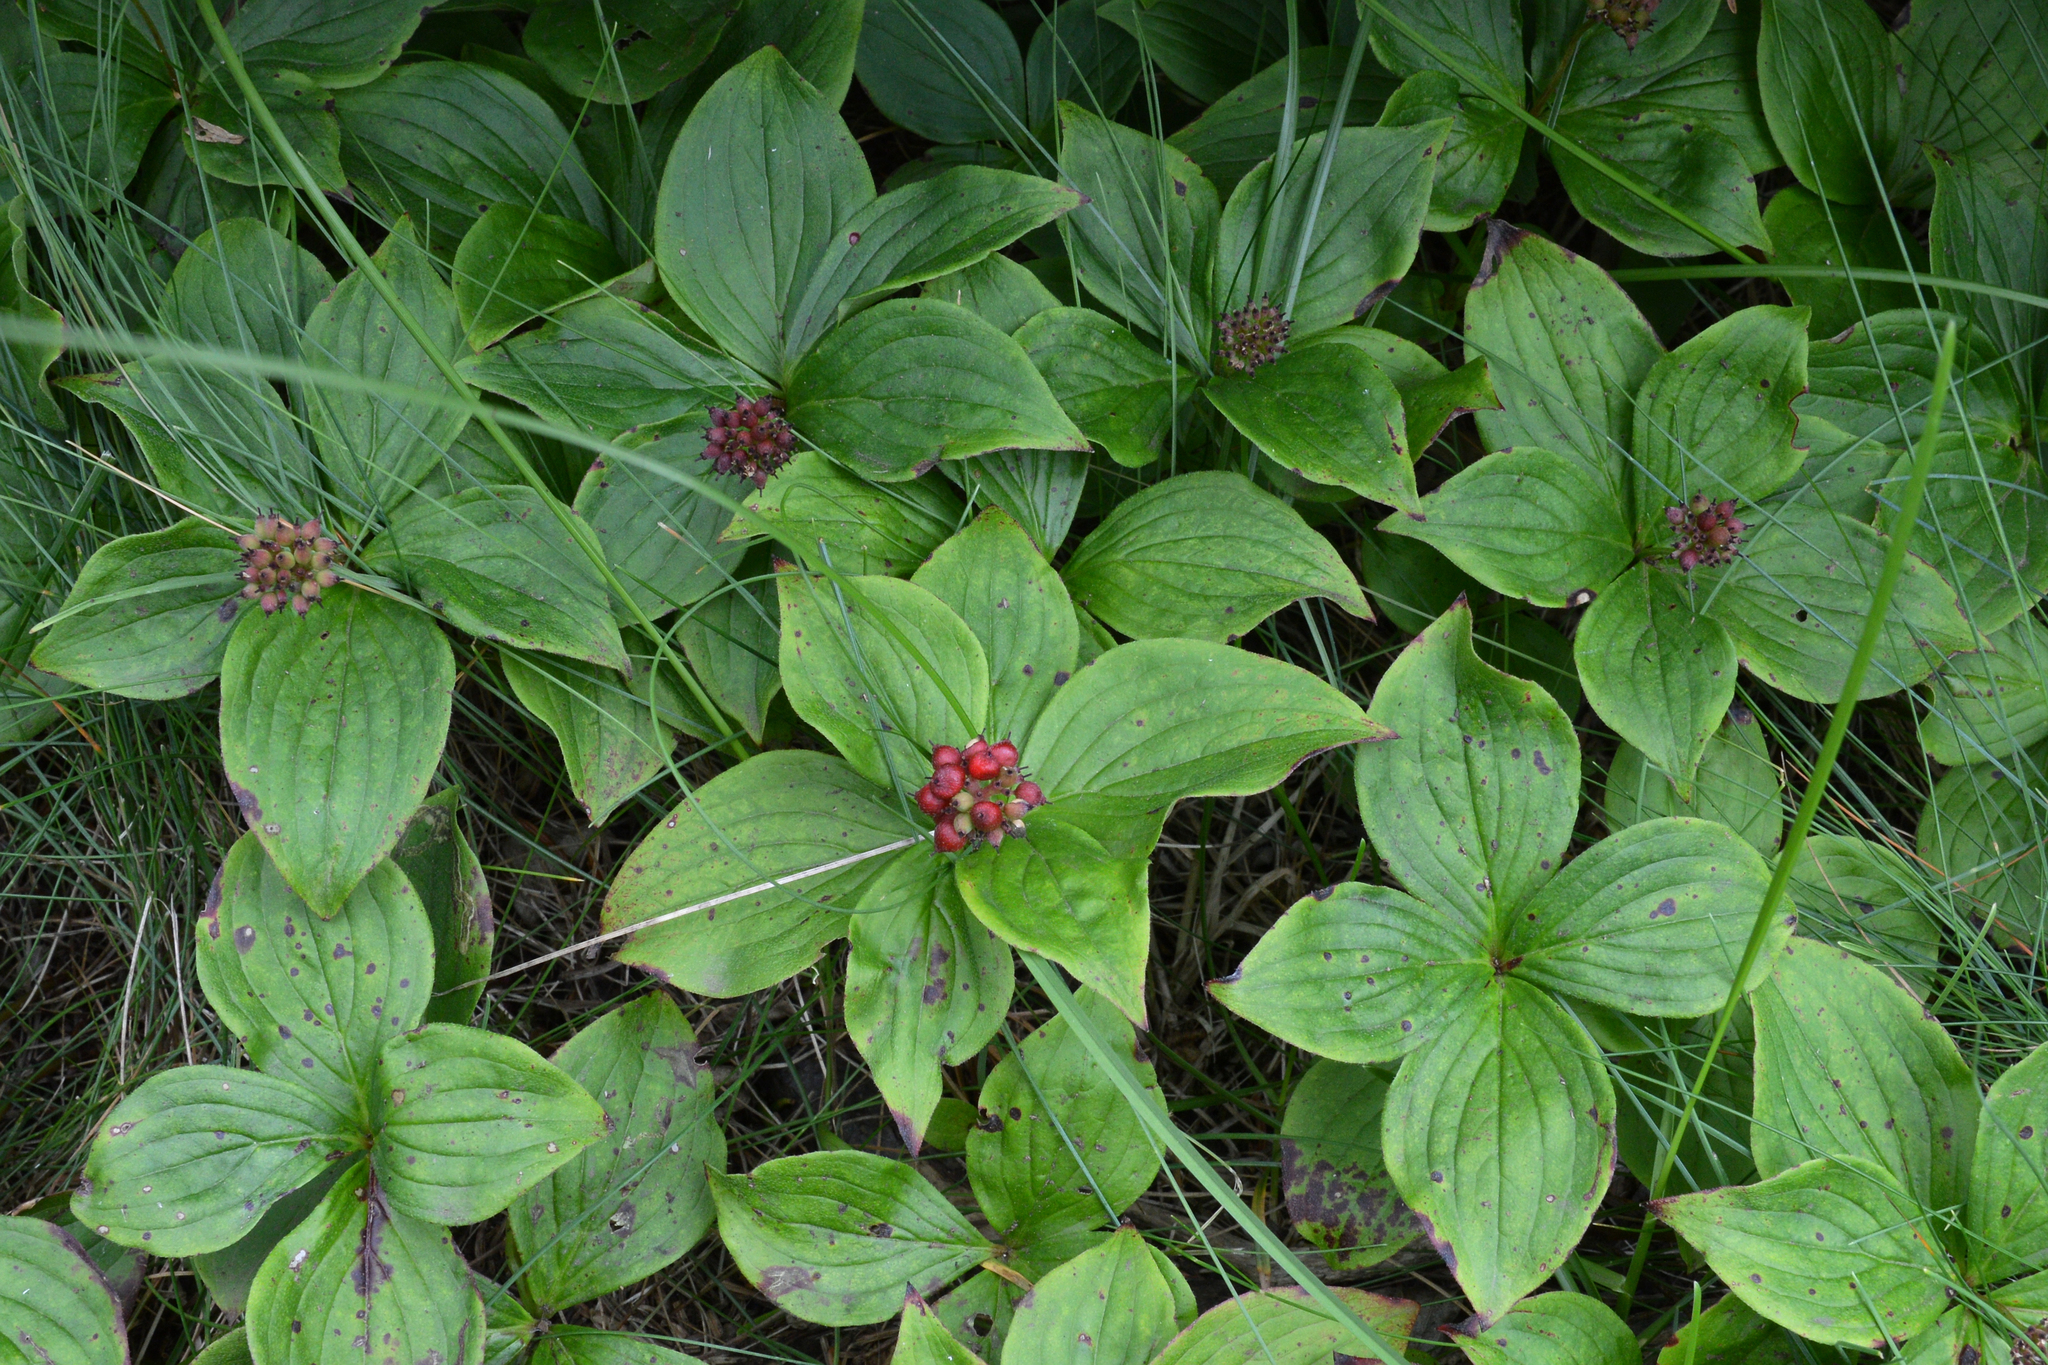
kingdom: Plantae
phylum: Tracheophyta
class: Magnoliopsida
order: Cornales
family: Cornaceae
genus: Cornus
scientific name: Cornus canadensis
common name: Creeping dogwood
